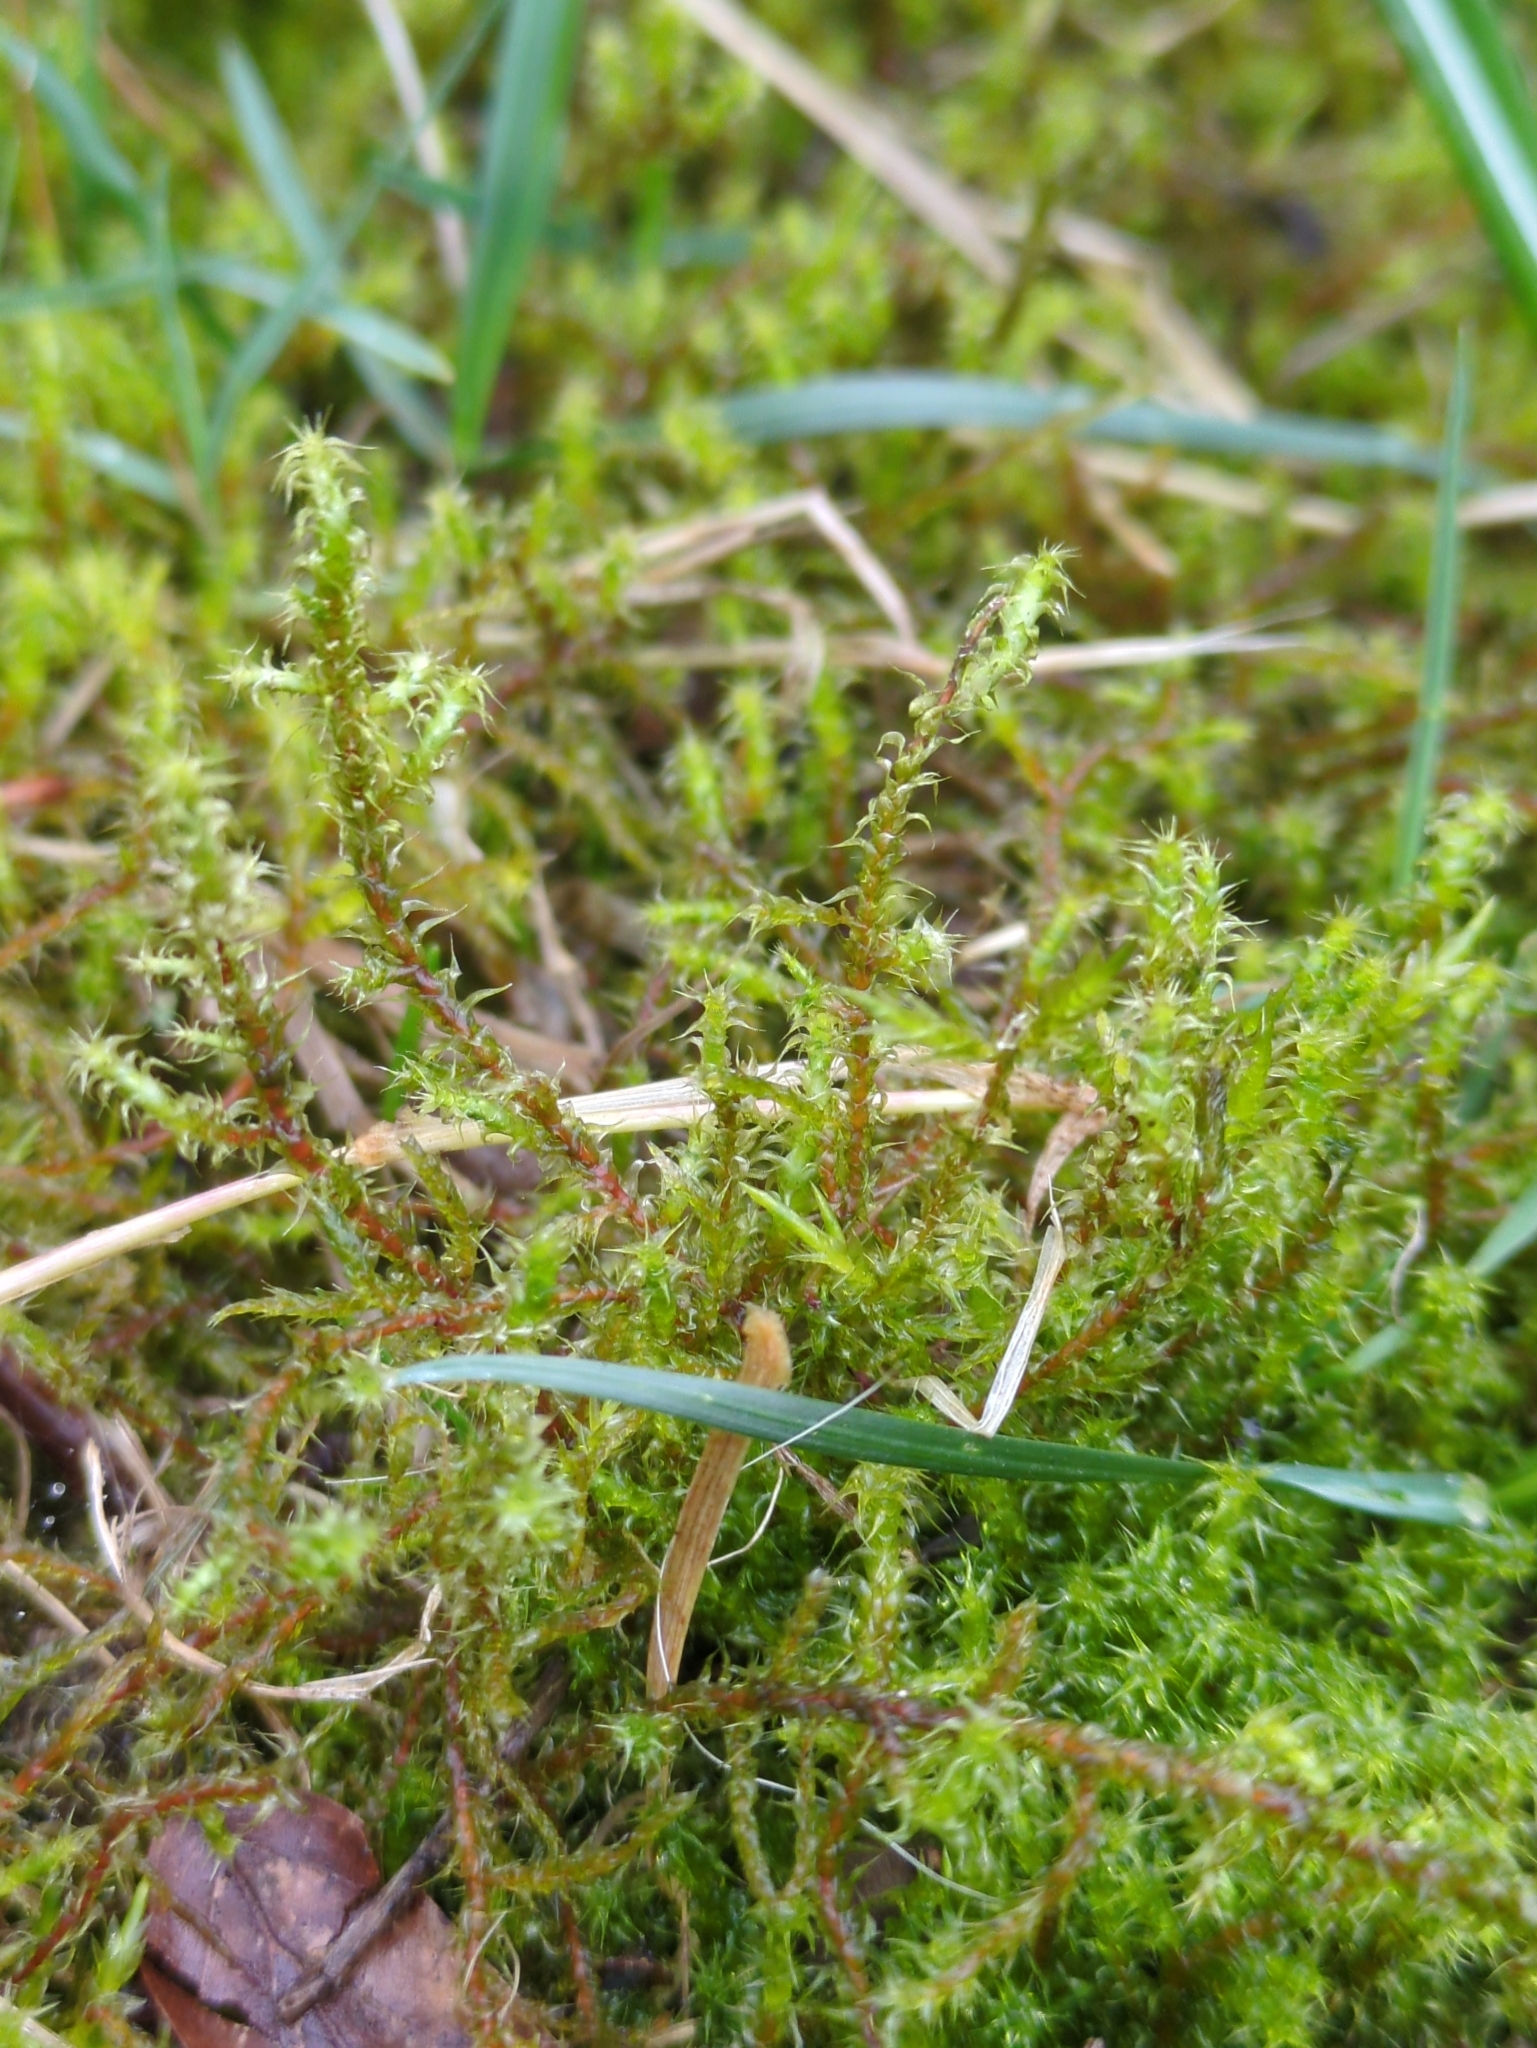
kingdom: Plantae
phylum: Bryophyta
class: Bryopsida
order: Hypnales
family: Hylocomiaceae
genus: Rhytidiadelphus
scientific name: Rhytidiadelphus squarrosus
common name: Springy turf-moss
